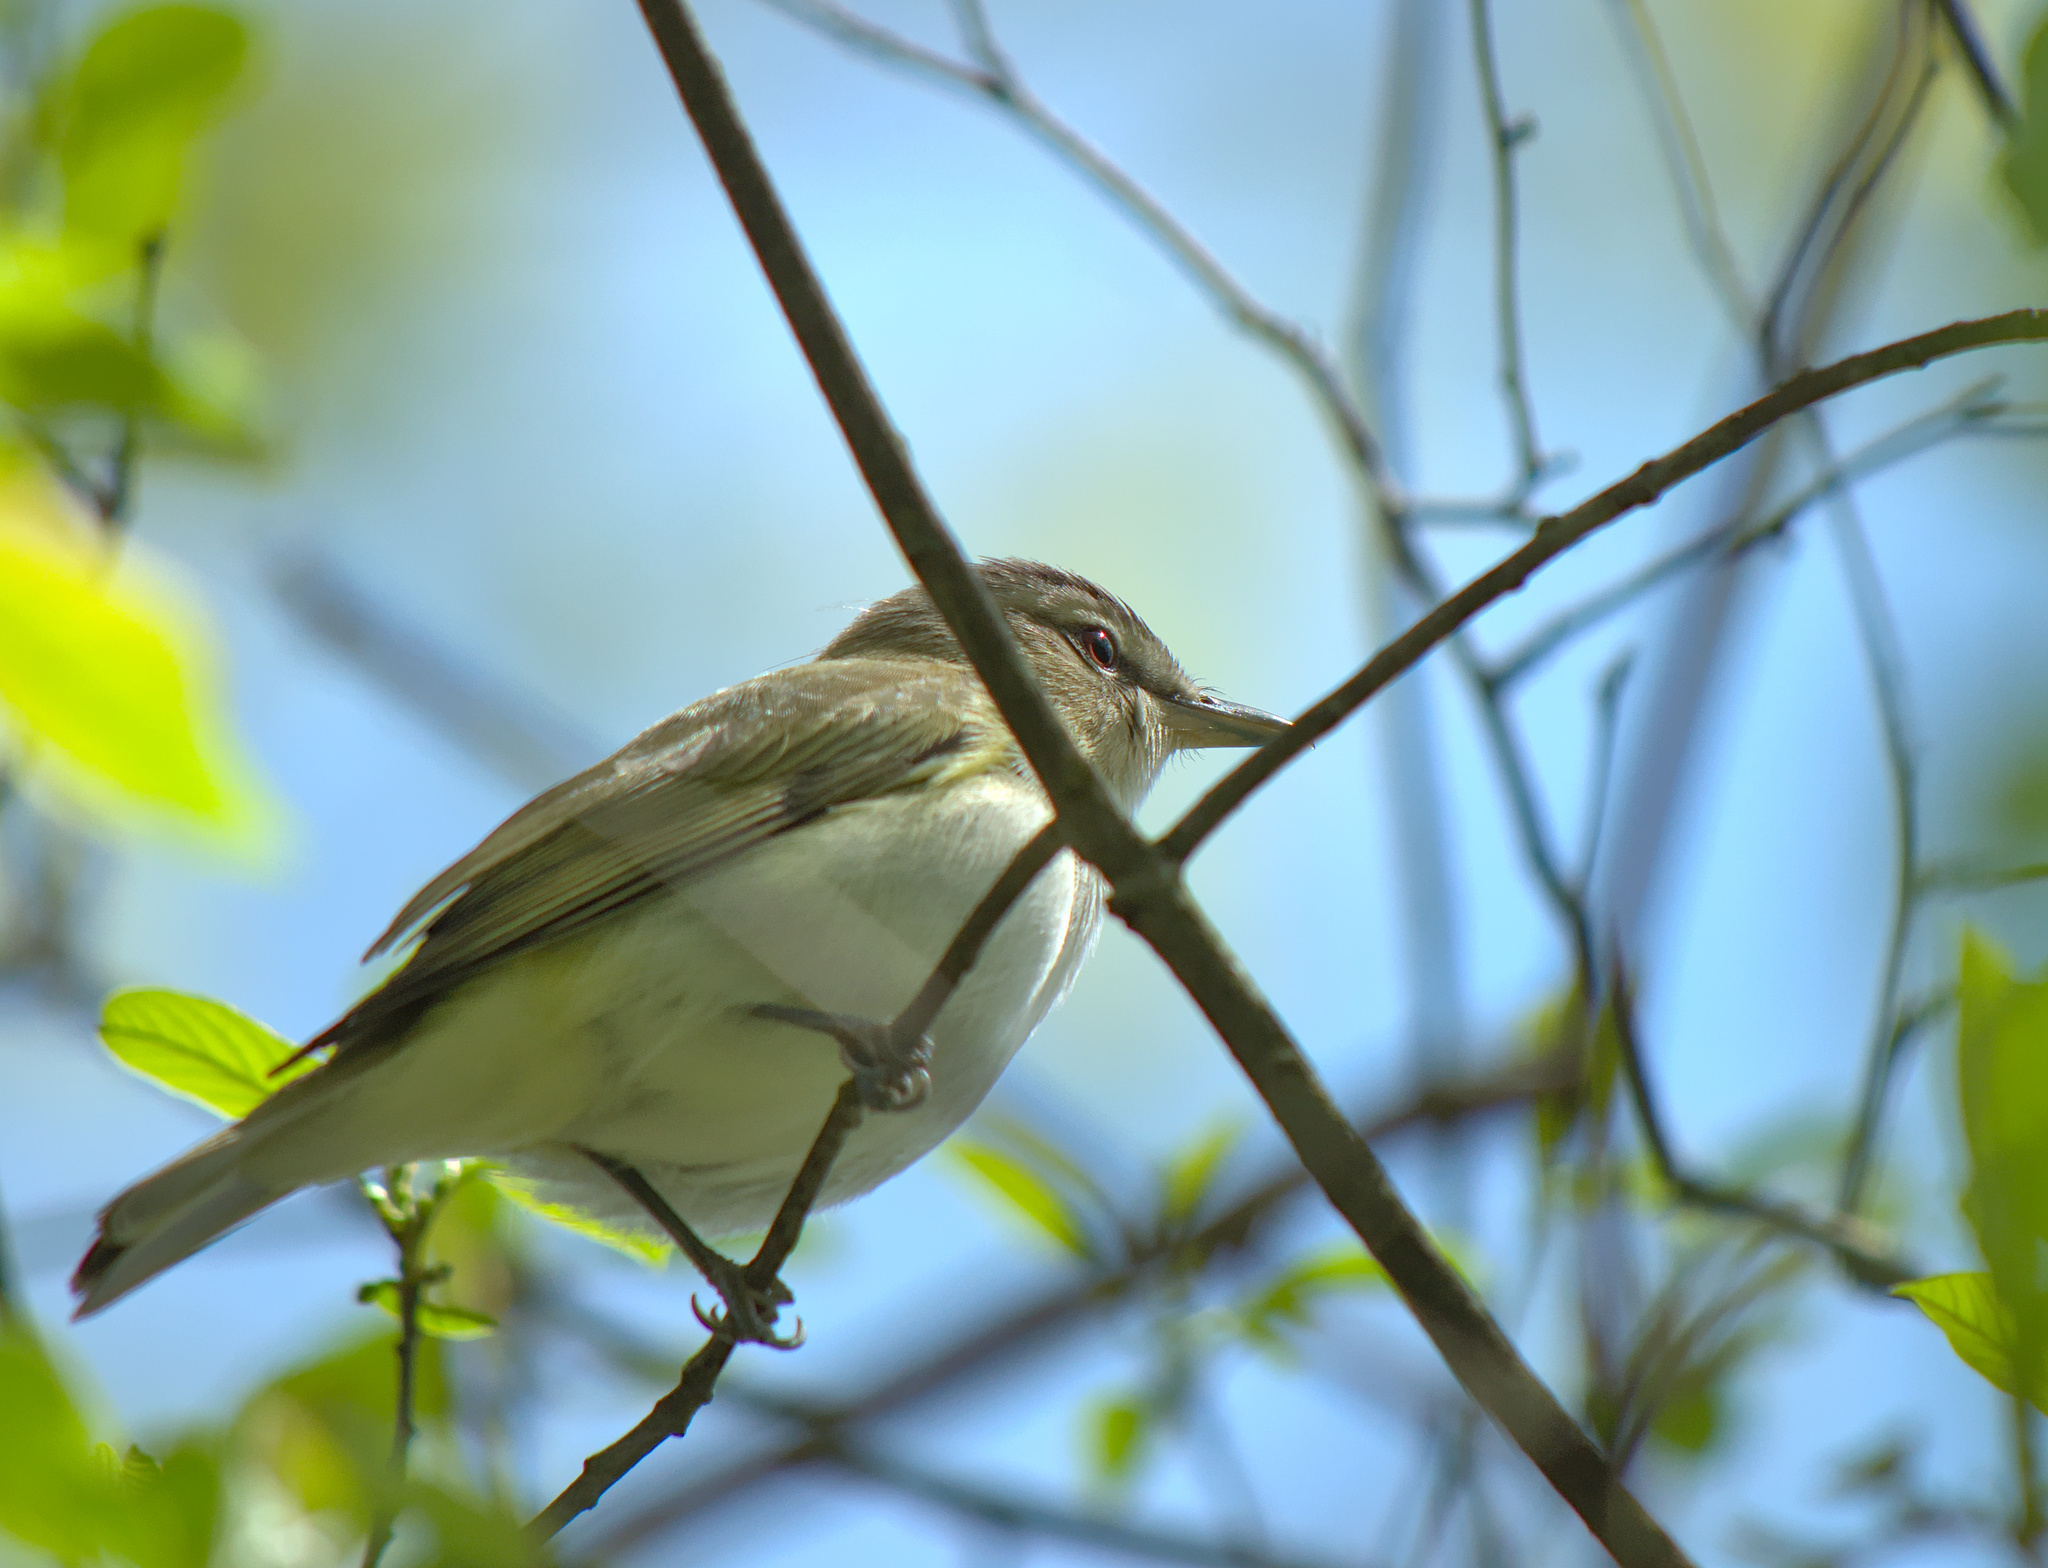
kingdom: Animalia
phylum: Chordata
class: Aves
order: Passeriformes
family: Vireonidae
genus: Vireo
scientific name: Vireo olivaceus
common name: Red-eyed vireo
